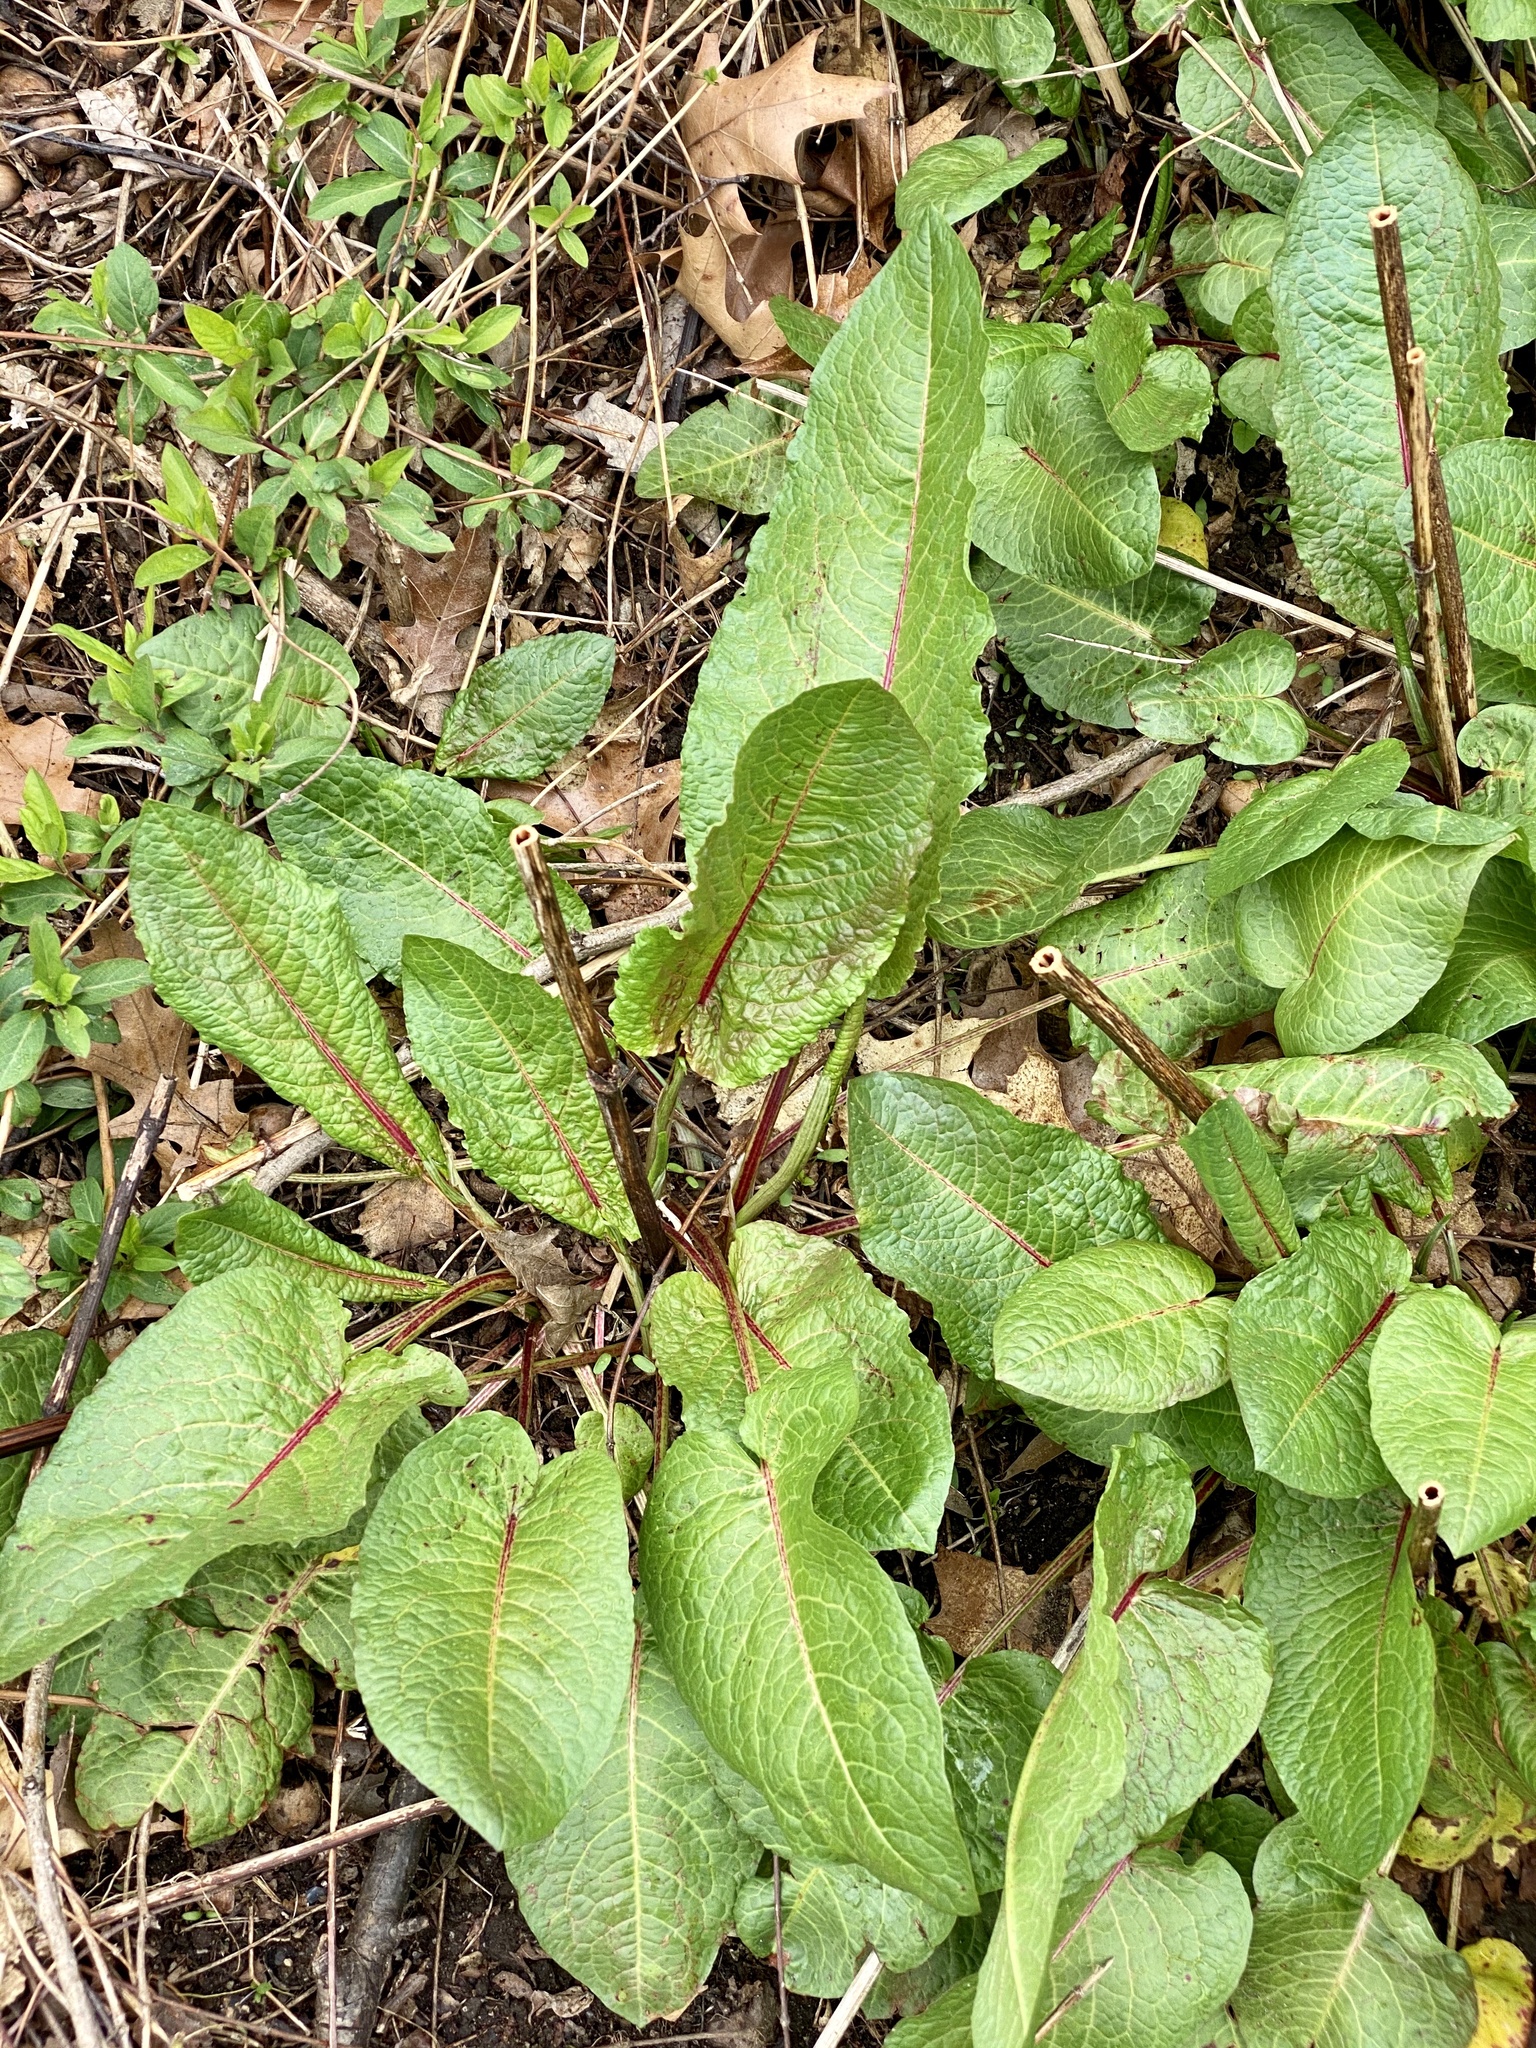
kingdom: Plantae
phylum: Tracheophyta
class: Magnoliopsida
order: Caryophyllales
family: Polygonaceae
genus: Rumex
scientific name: Rumex obtusifolius
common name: Bitter dock
